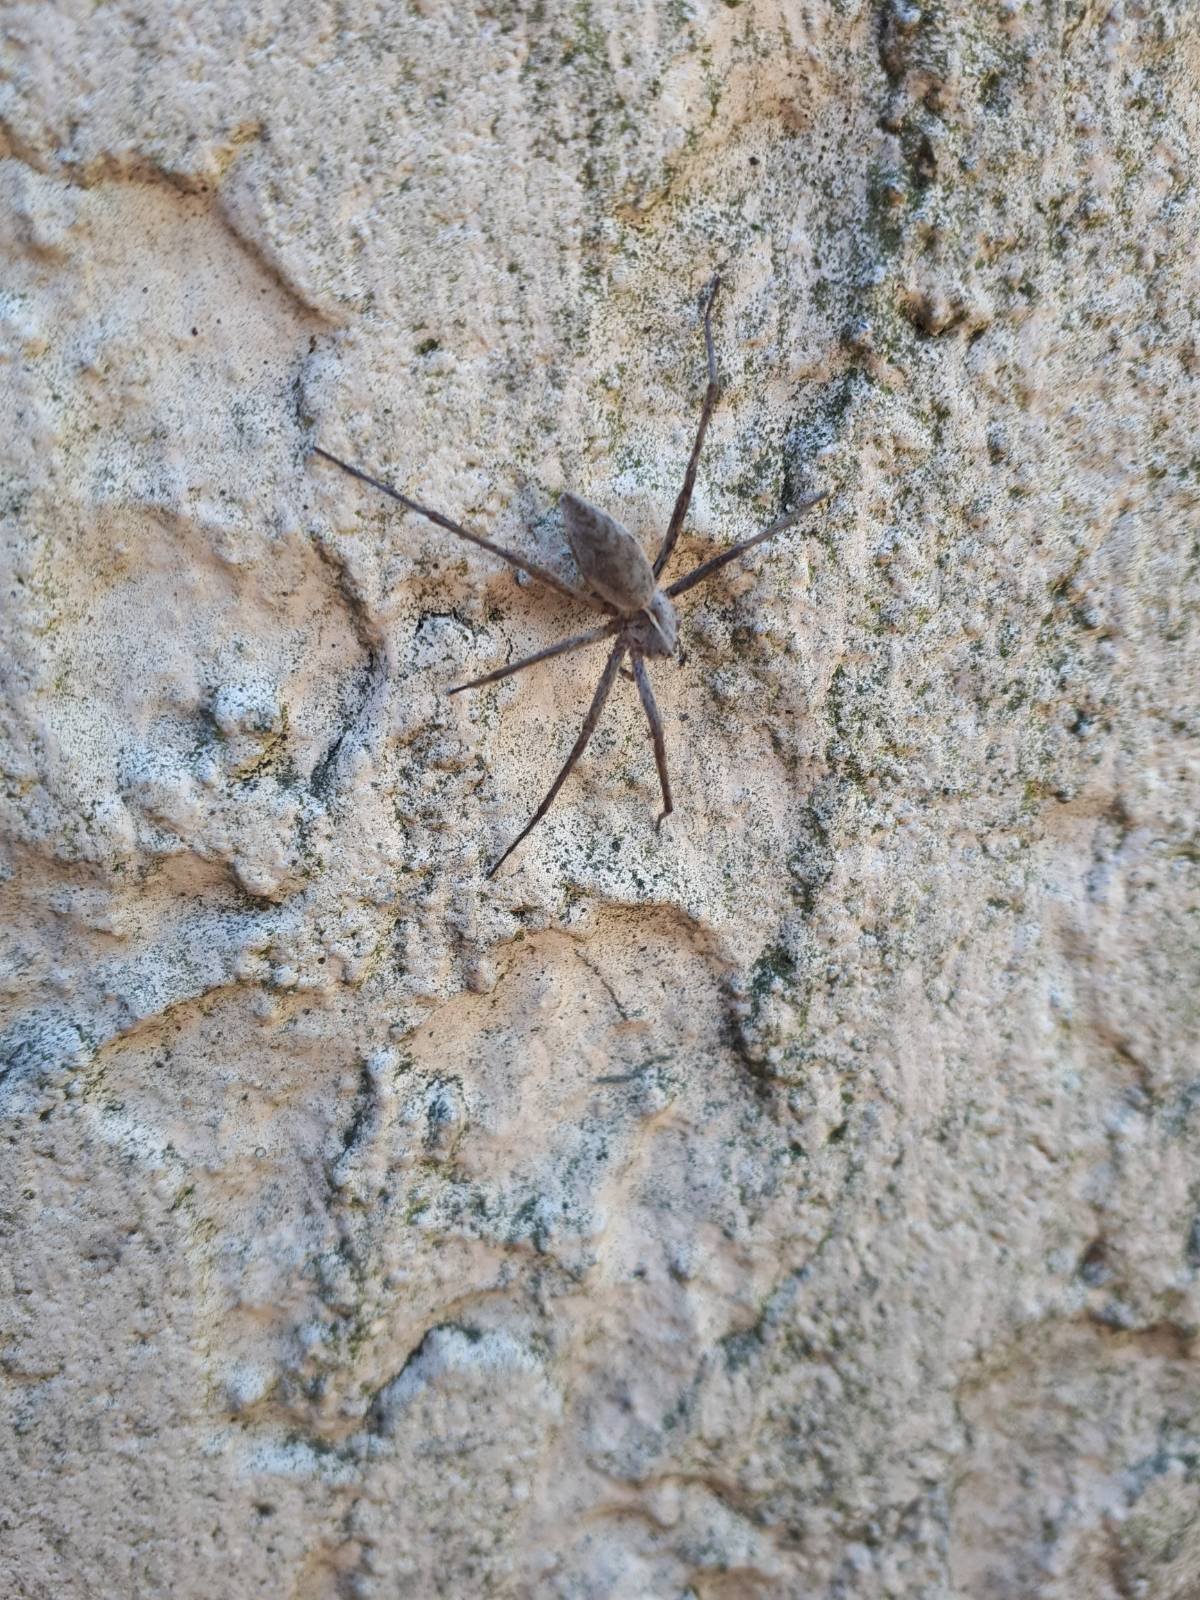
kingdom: Animalia
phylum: Arthropoda
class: Arachnida
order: Araneae
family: Pisauridae
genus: Pisaura
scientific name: Pisaura mirabilis
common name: Tent spider
